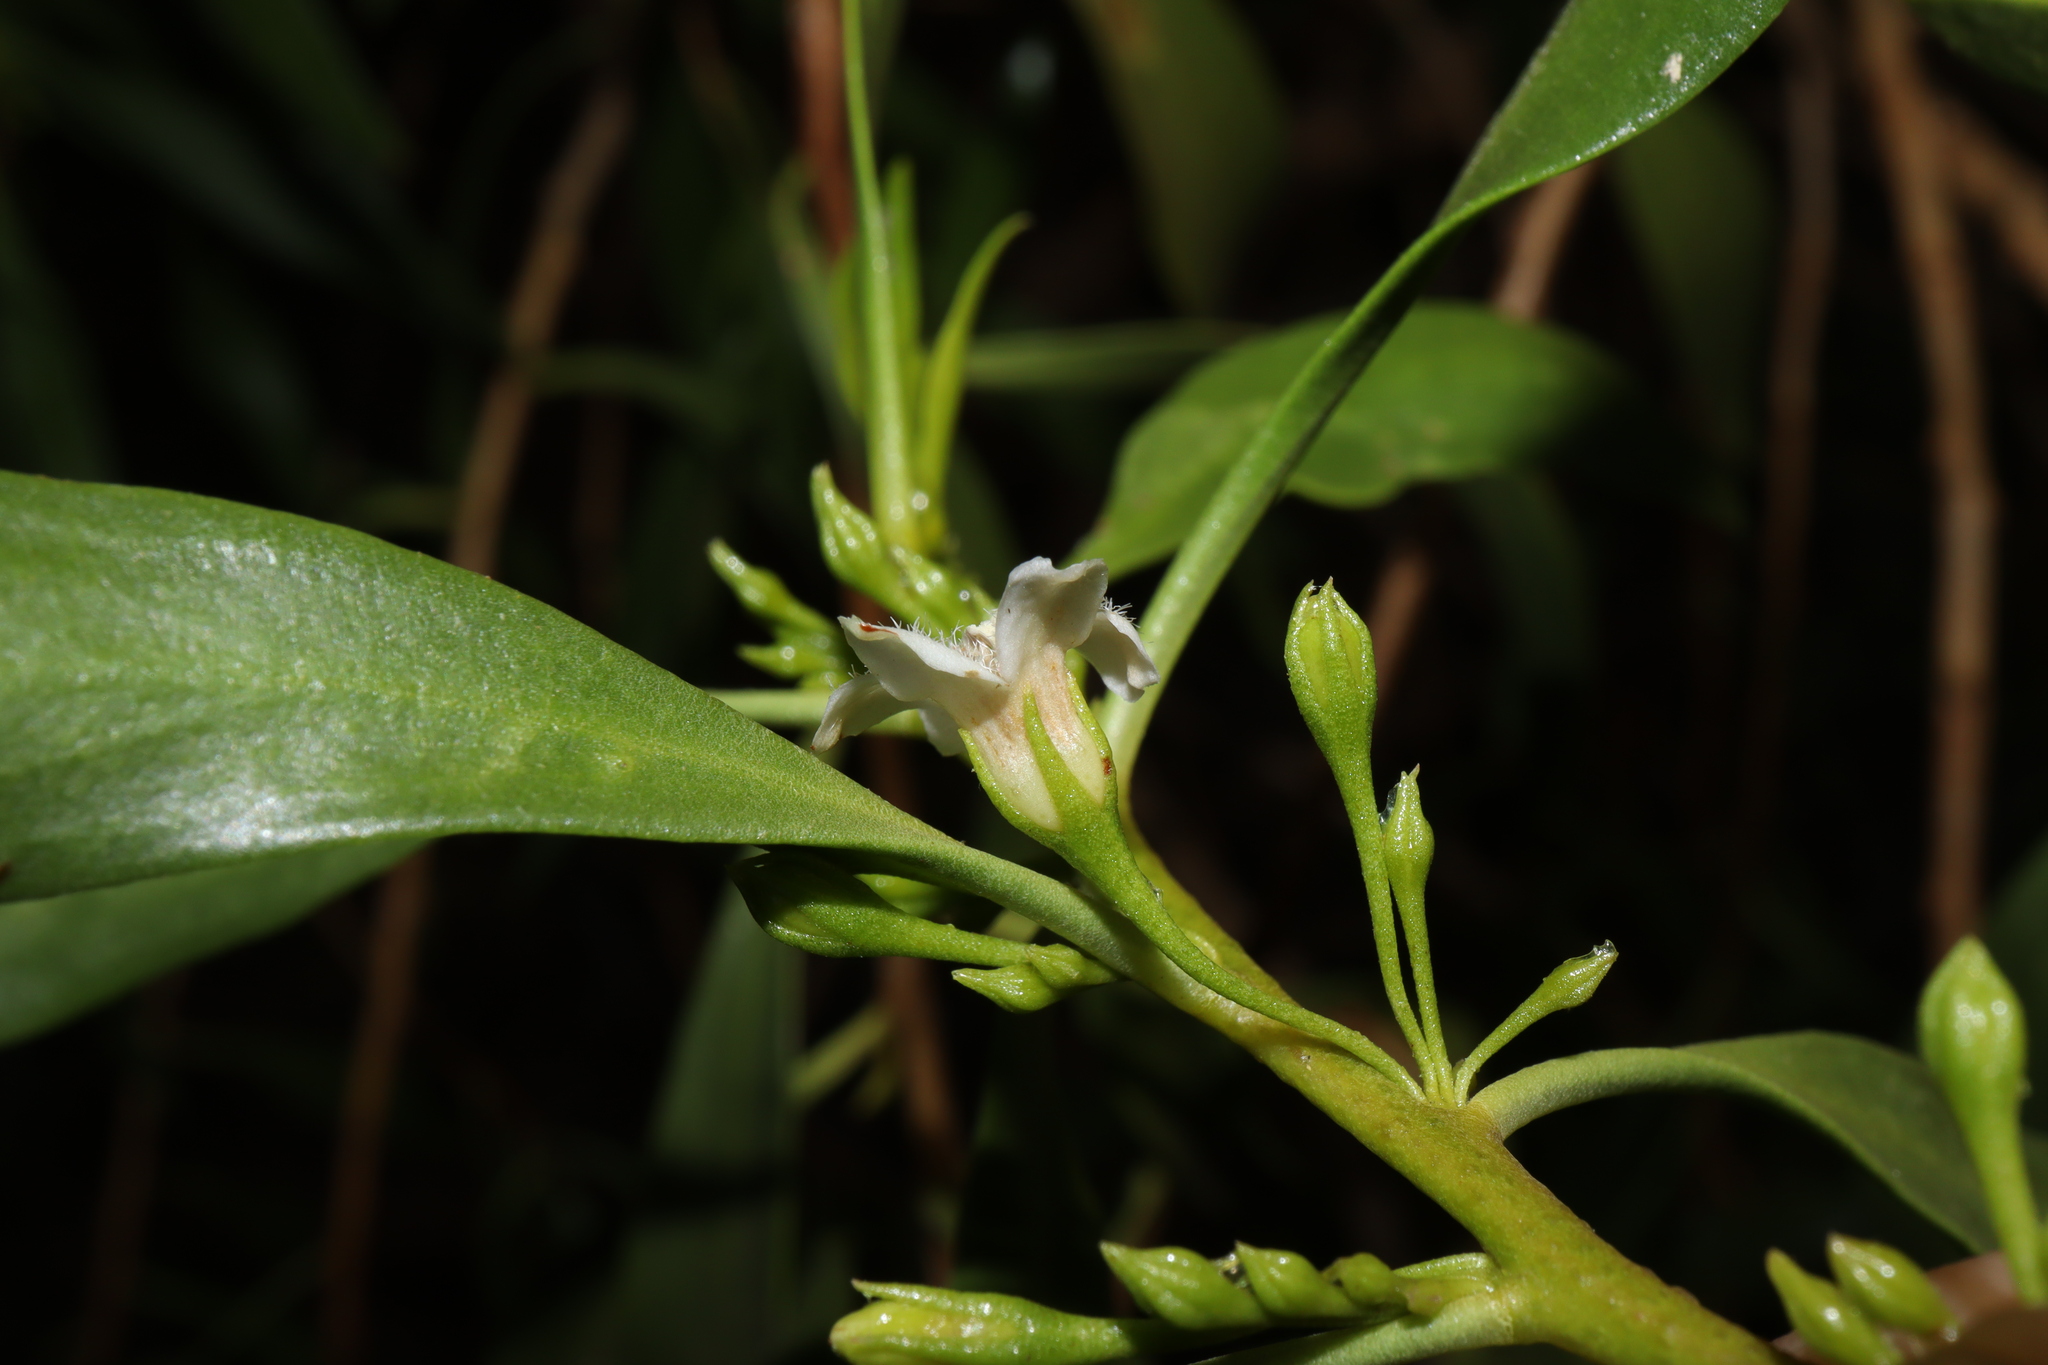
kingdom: Plantae
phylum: Tracheophyta
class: Magnoliopsida
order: Lamiales
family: Scrophulariaceae
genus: Myoporum
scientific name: Myoporum montanum
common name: Waterbush
